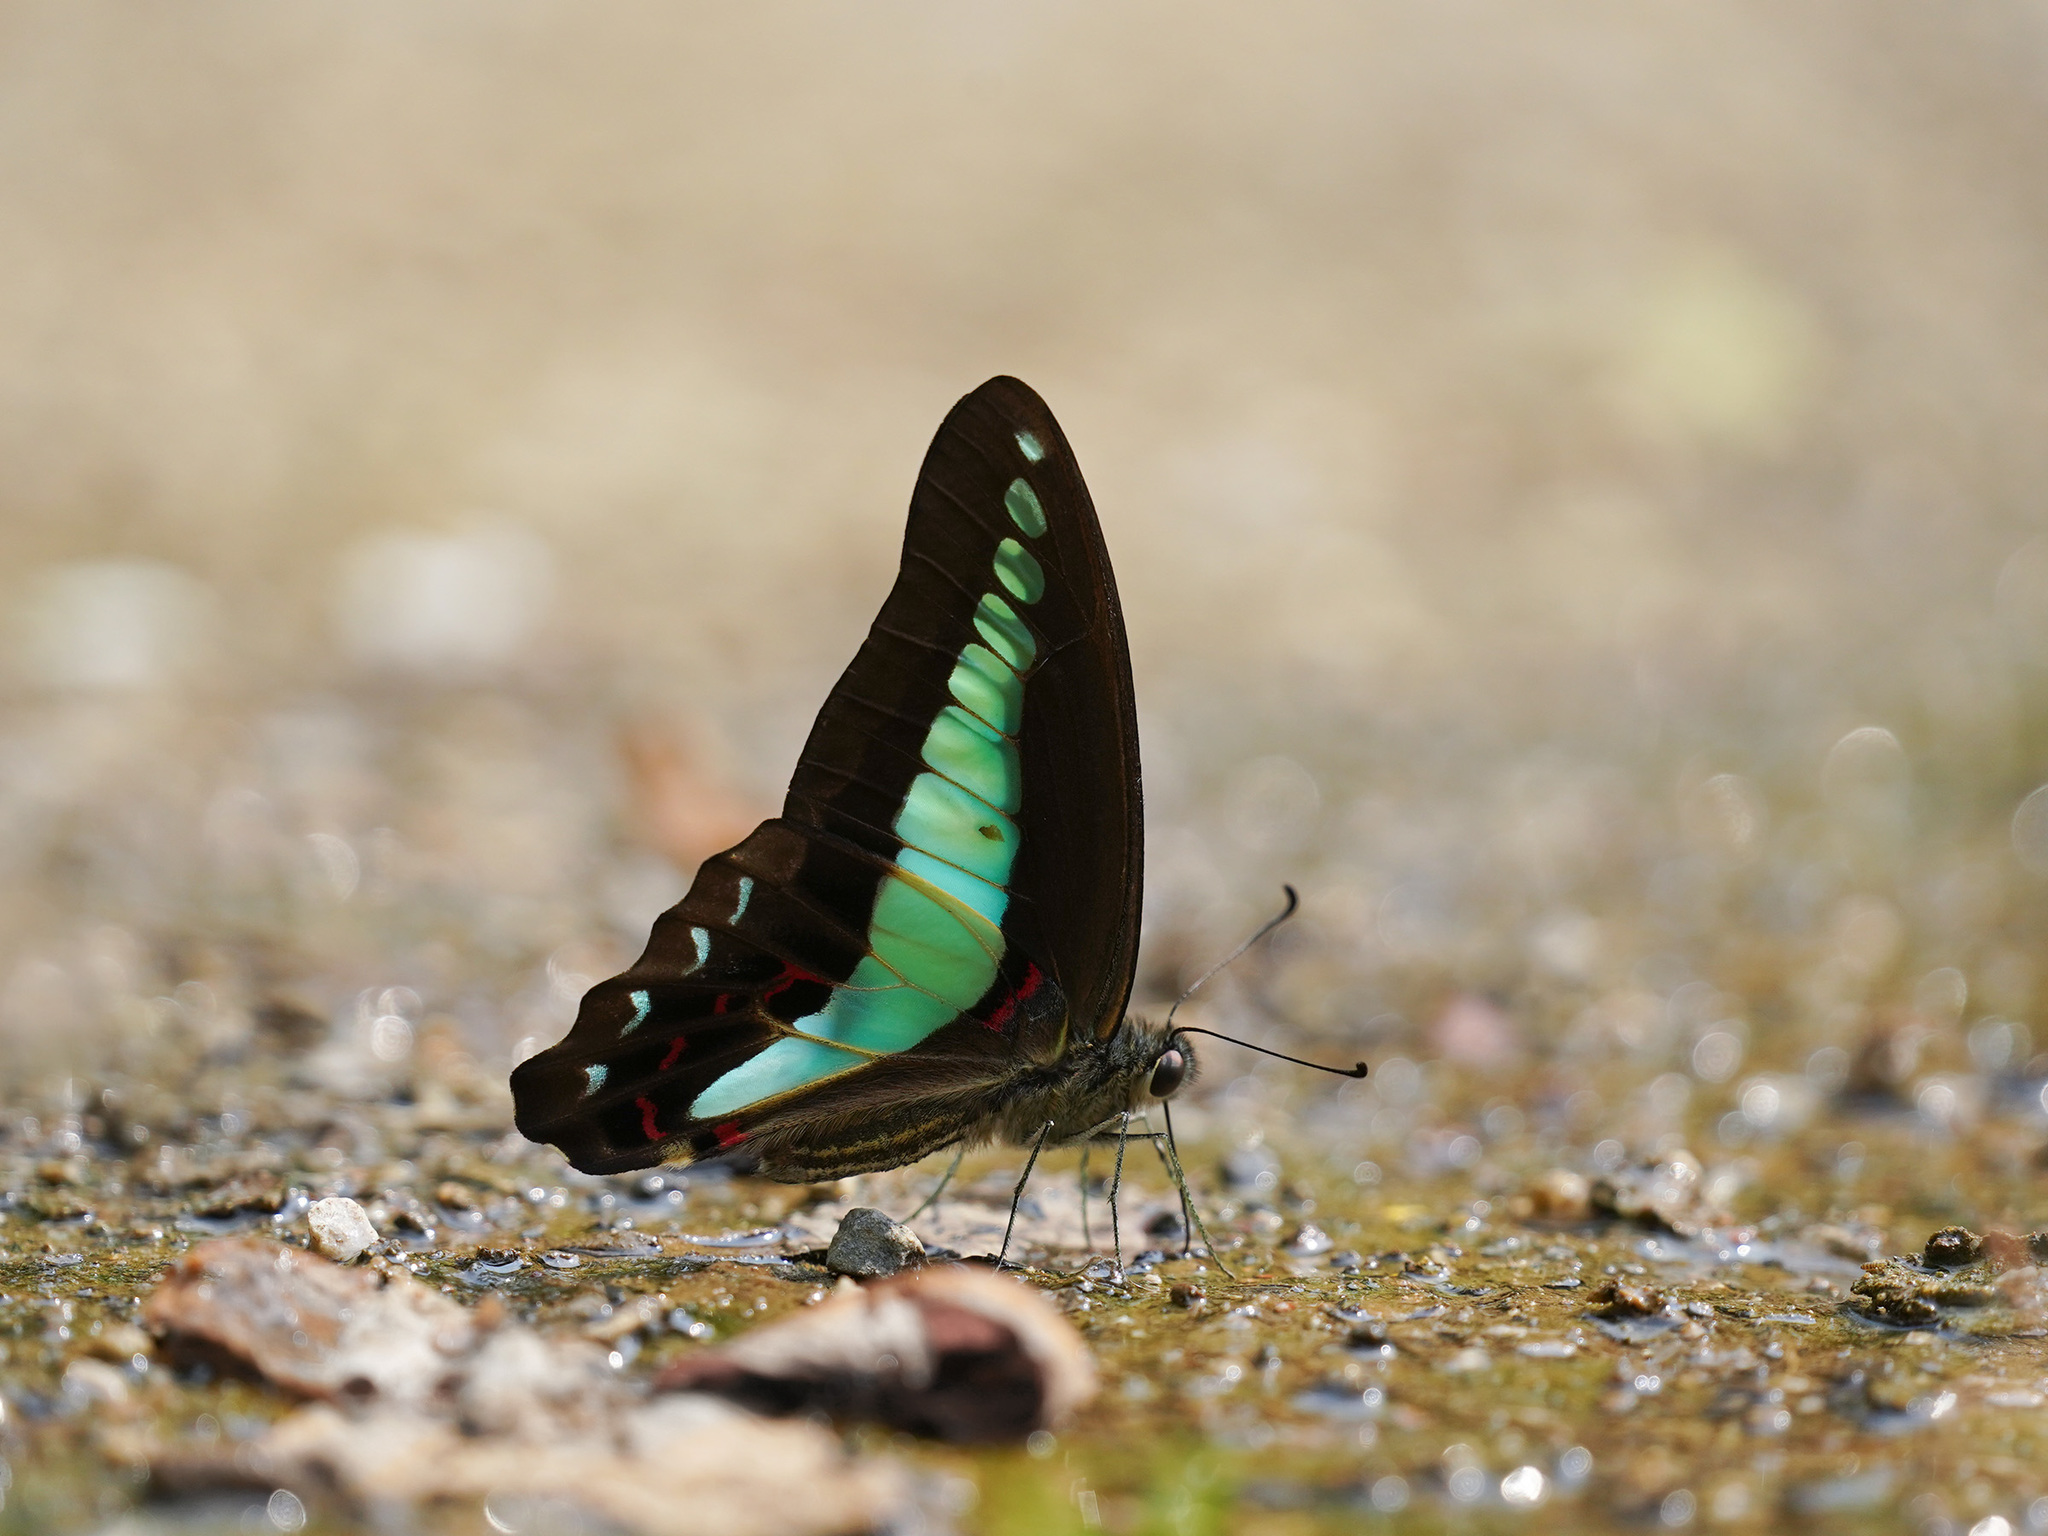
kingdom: Fungi
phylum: Ascomycota
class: Sordariomycetes
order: Microascales
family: Microascaceae
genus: Graphium
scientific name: Graphium sarpedon
